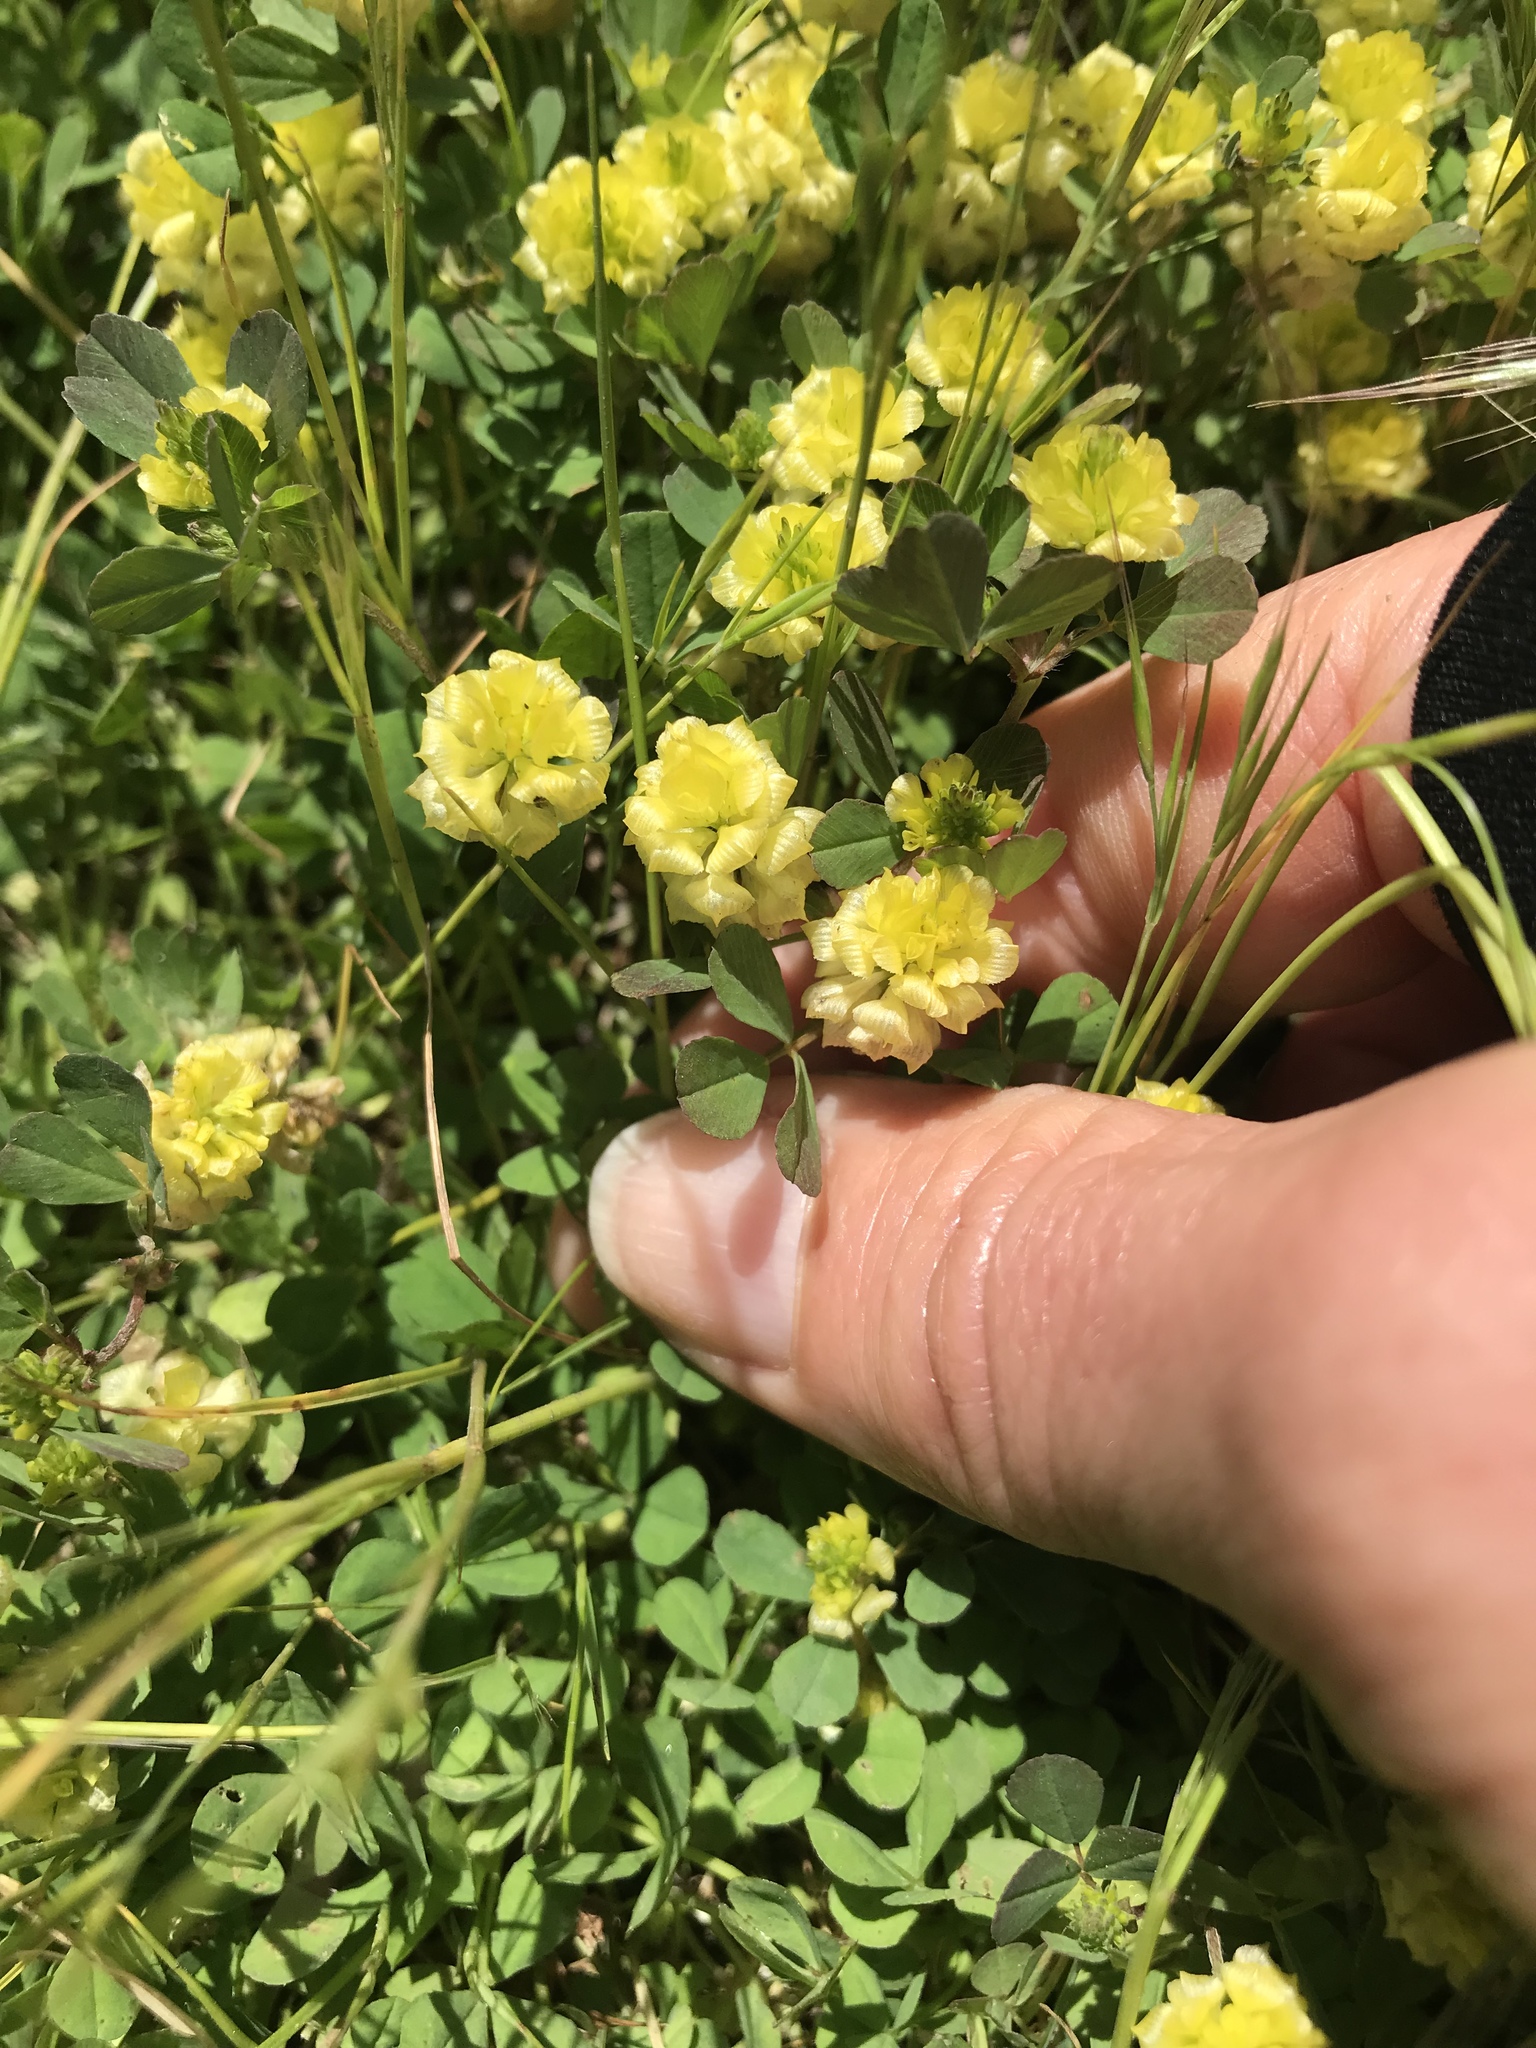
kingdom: Plantae
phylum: Tracheophyta
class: Magnoliopsida
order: Fabales
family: Fabaceae
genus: Trifolium
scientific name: Trifolium campestre
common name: Field clover
